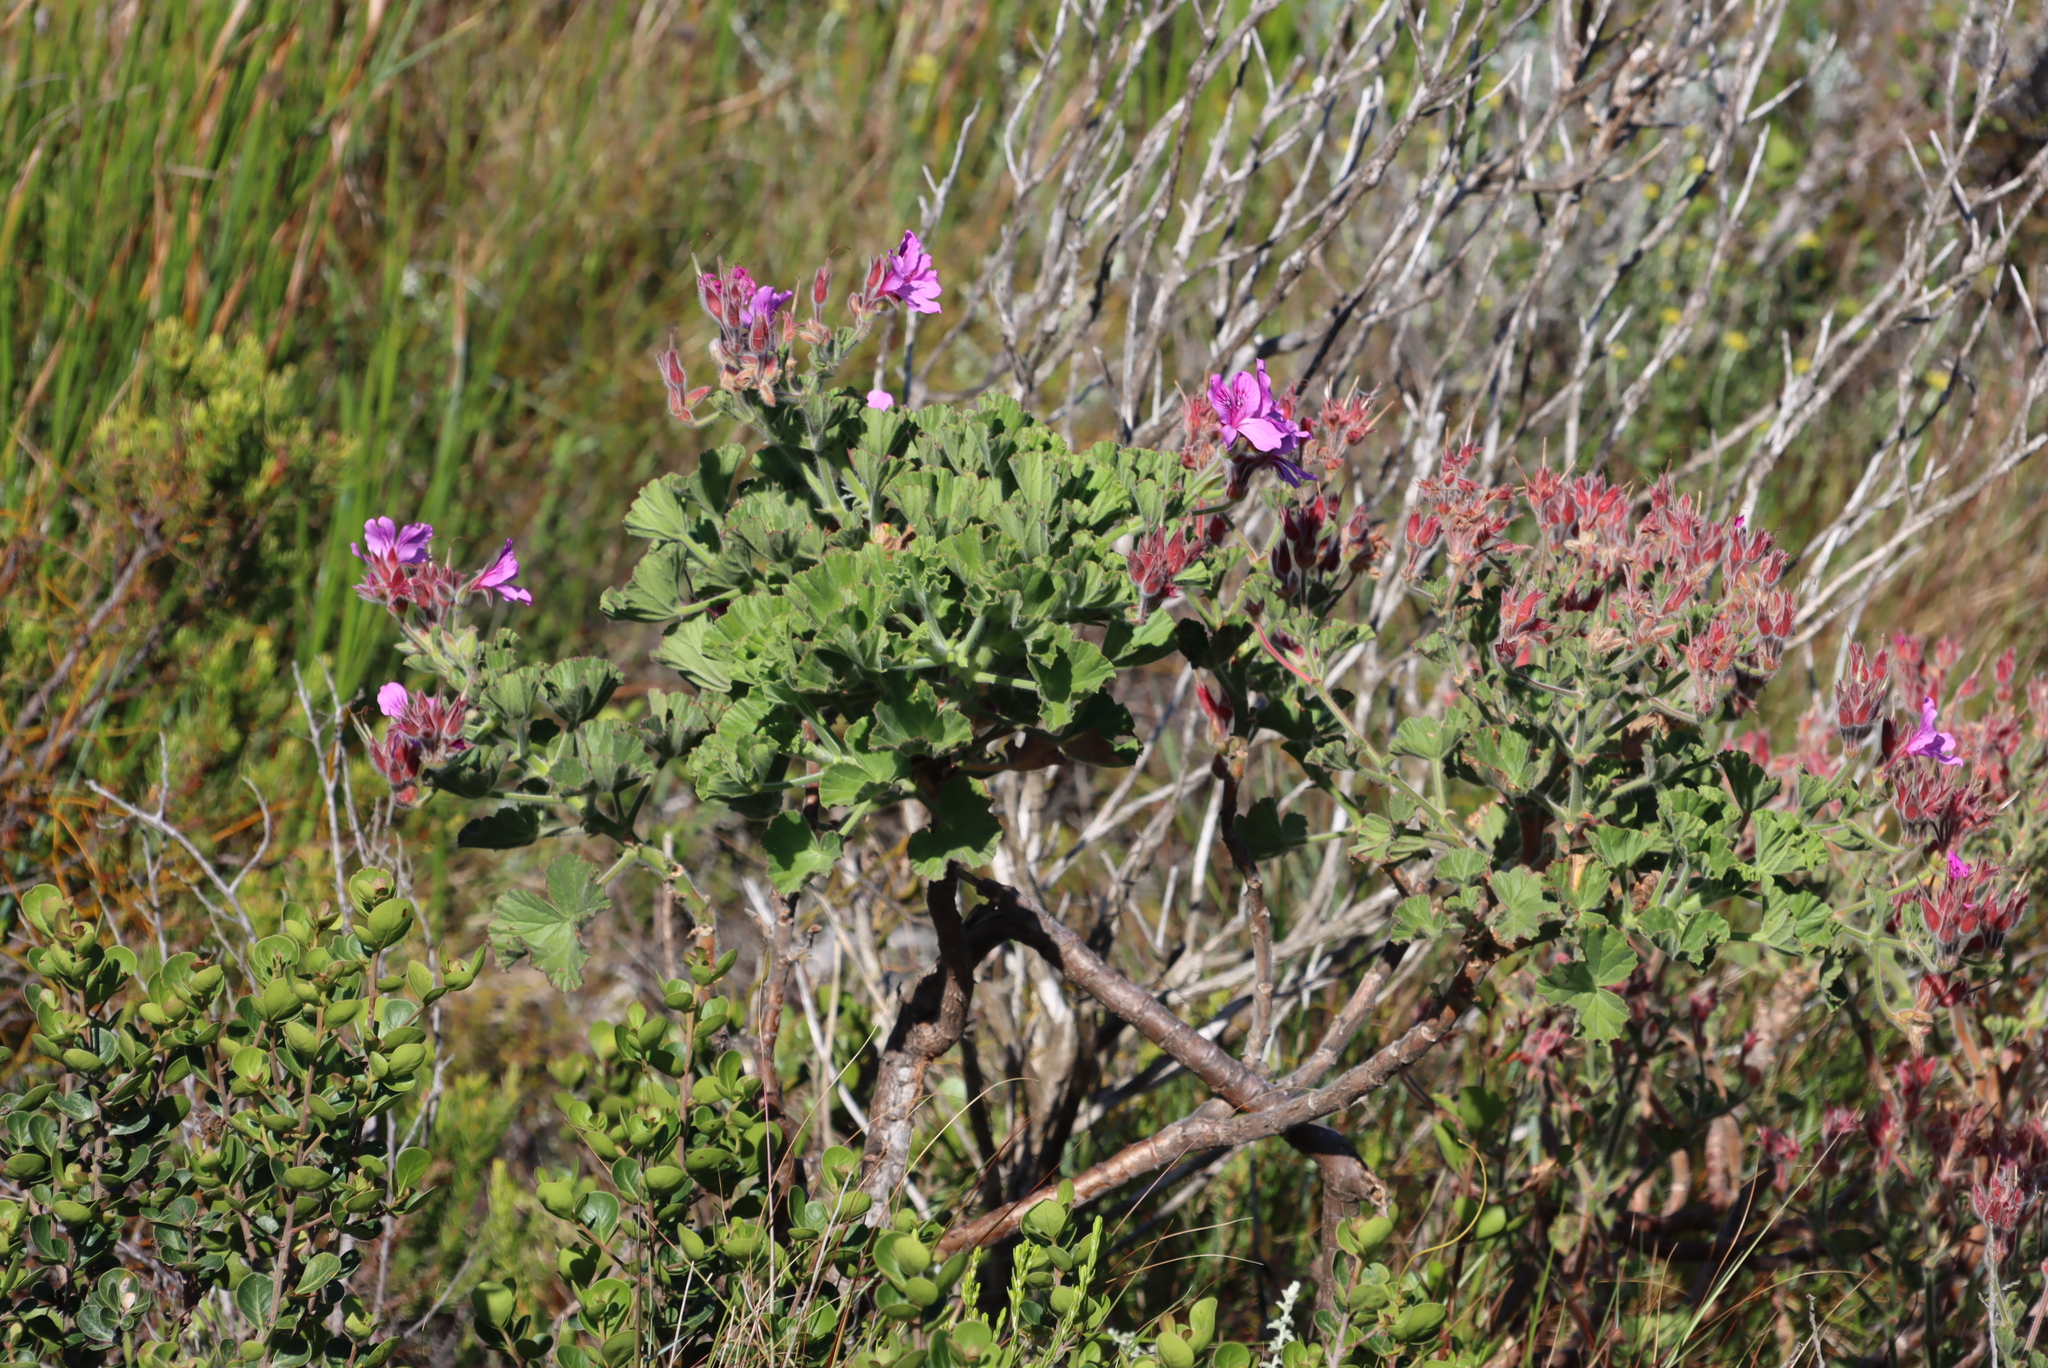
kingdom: Plantae
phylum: Tracheophyta
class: Magnoliopsida
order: Geraniales
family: Geraniaceae
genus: Pelargonium
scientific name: Pelargonium cucullatum
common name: Tree pelargonium
